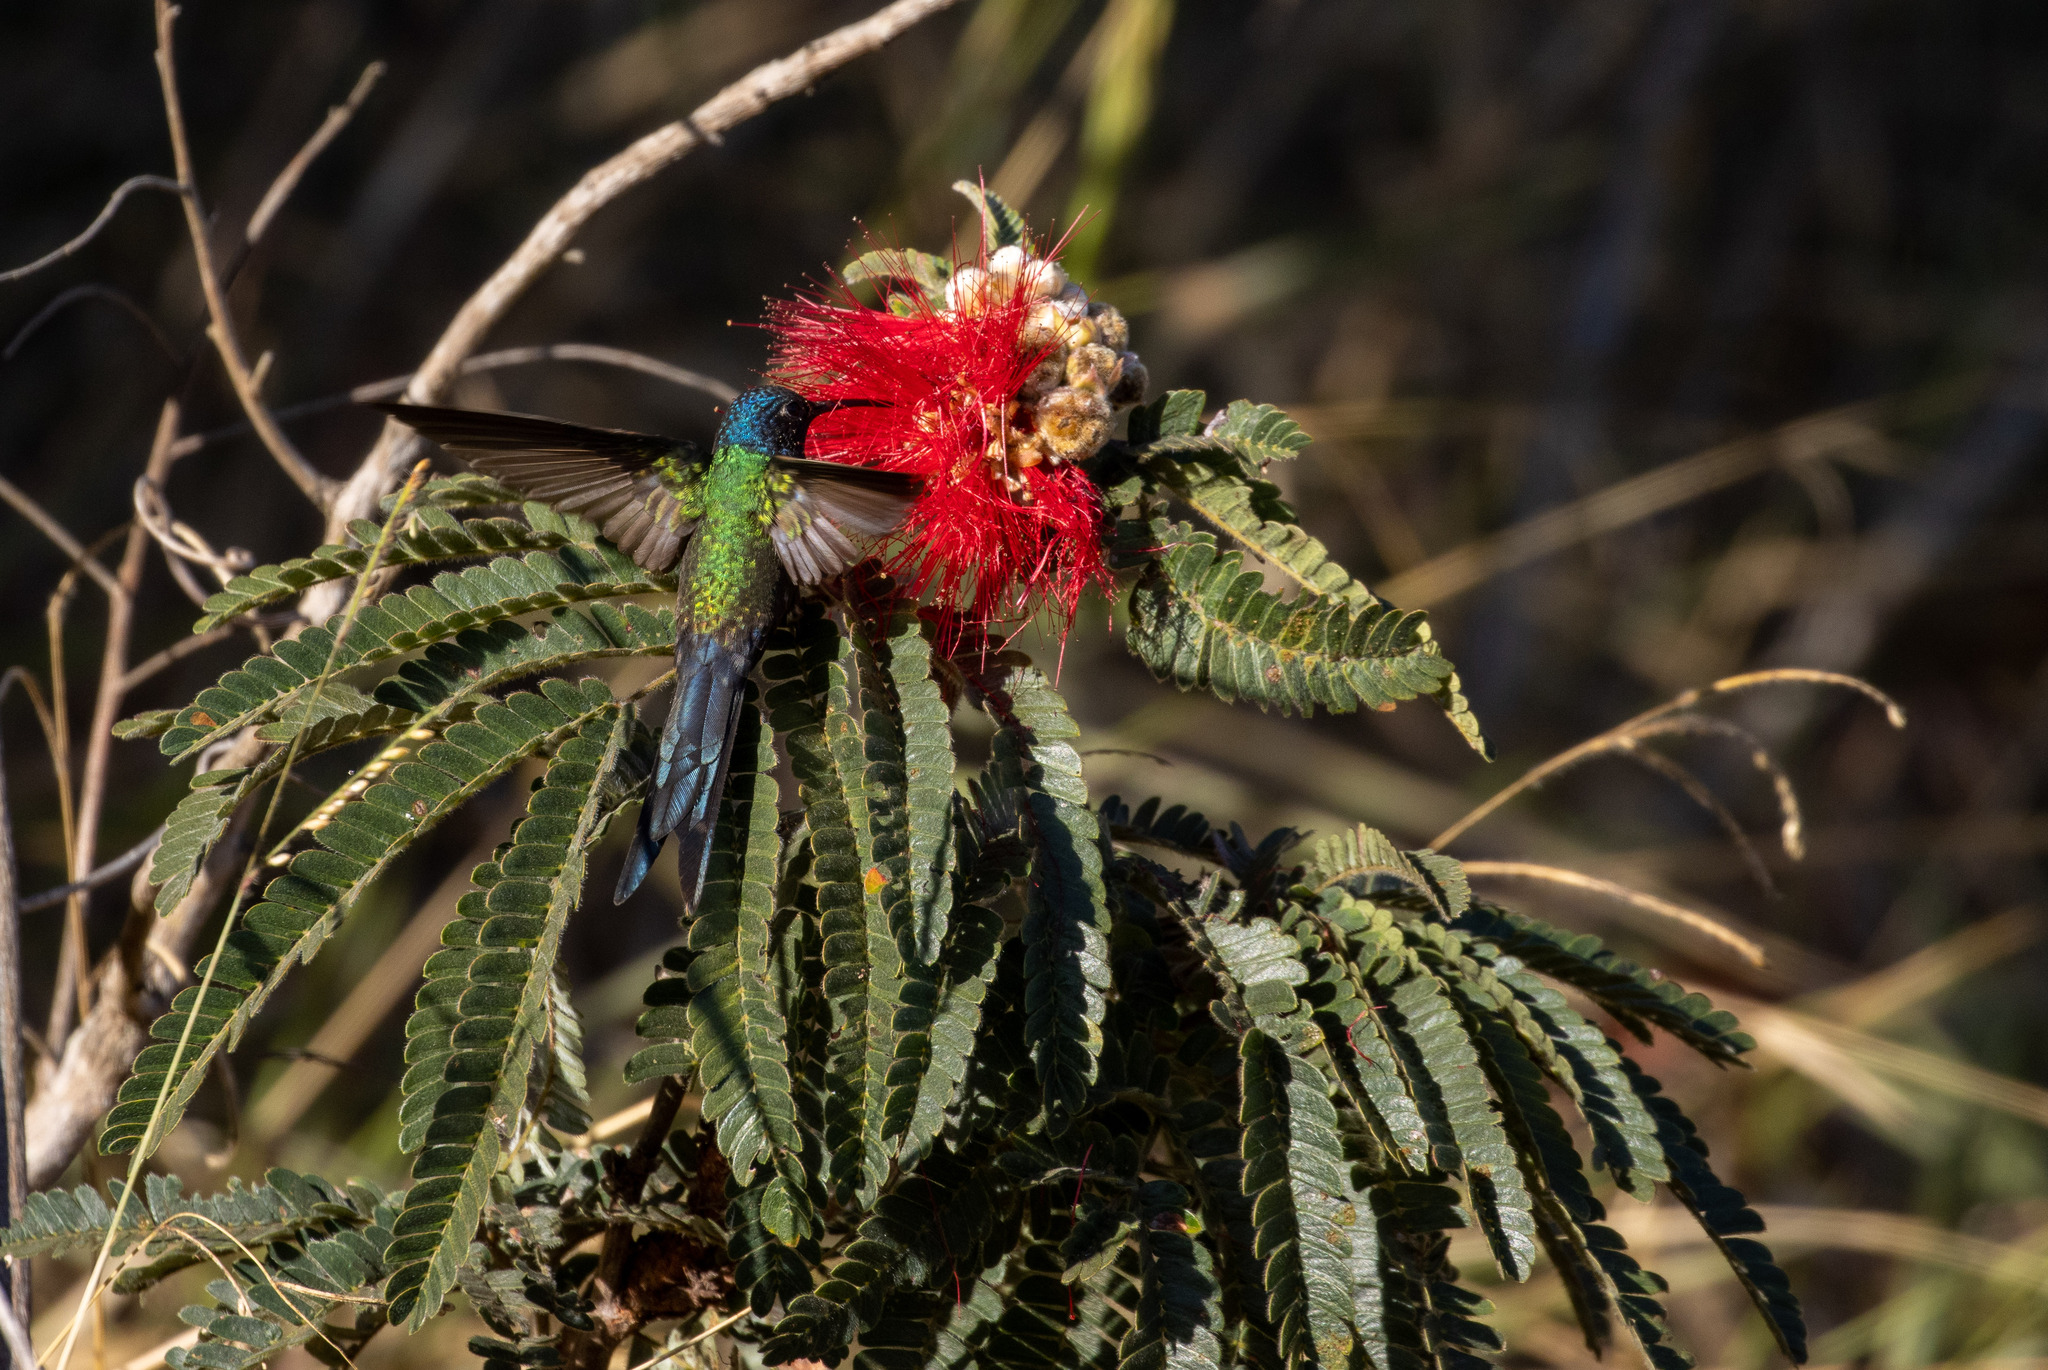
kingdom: Animalia
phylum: Chordata
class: Aves
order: Apodiformes
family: Trochilidae
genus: Eupetomena
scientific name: Eupetomena macroura
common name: Swallow-tailed hummingbird
